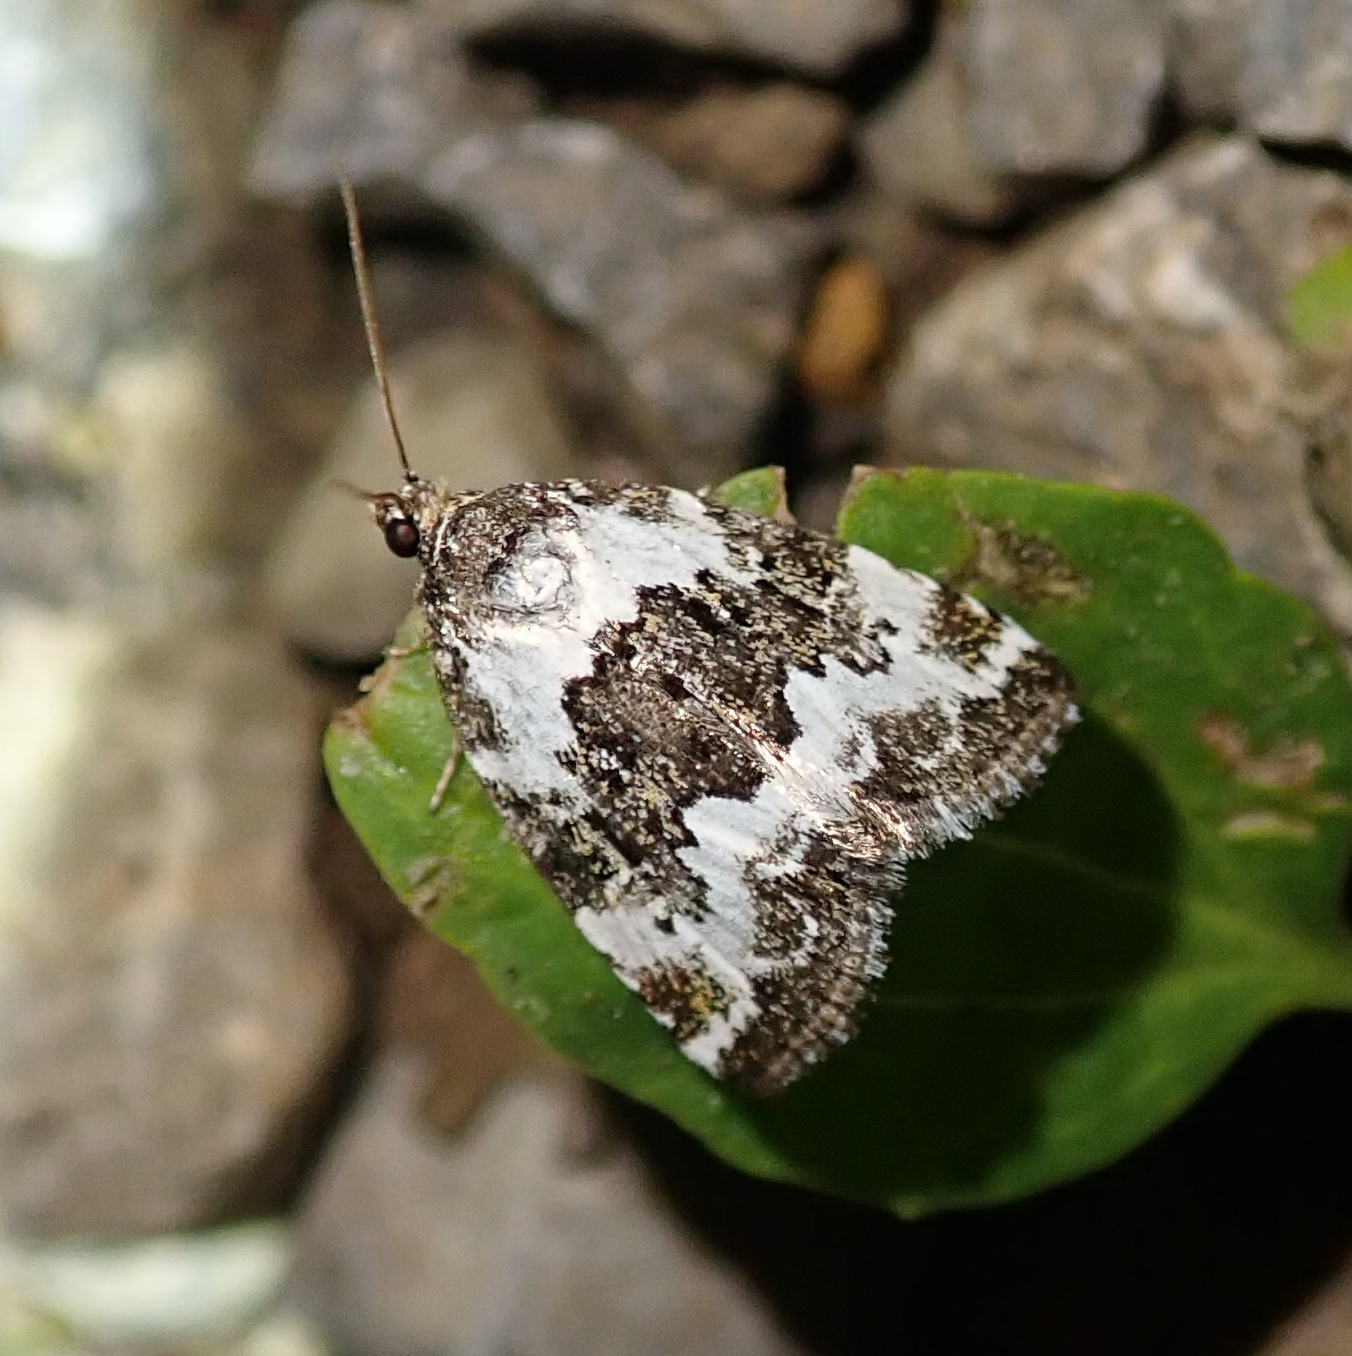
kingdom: Animalia
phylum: Arthropoda
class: Insecta
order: Lepidoptera
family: Noctuidae
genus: Deltote
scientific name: Deltote deceptoria
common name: Pretty marbled
